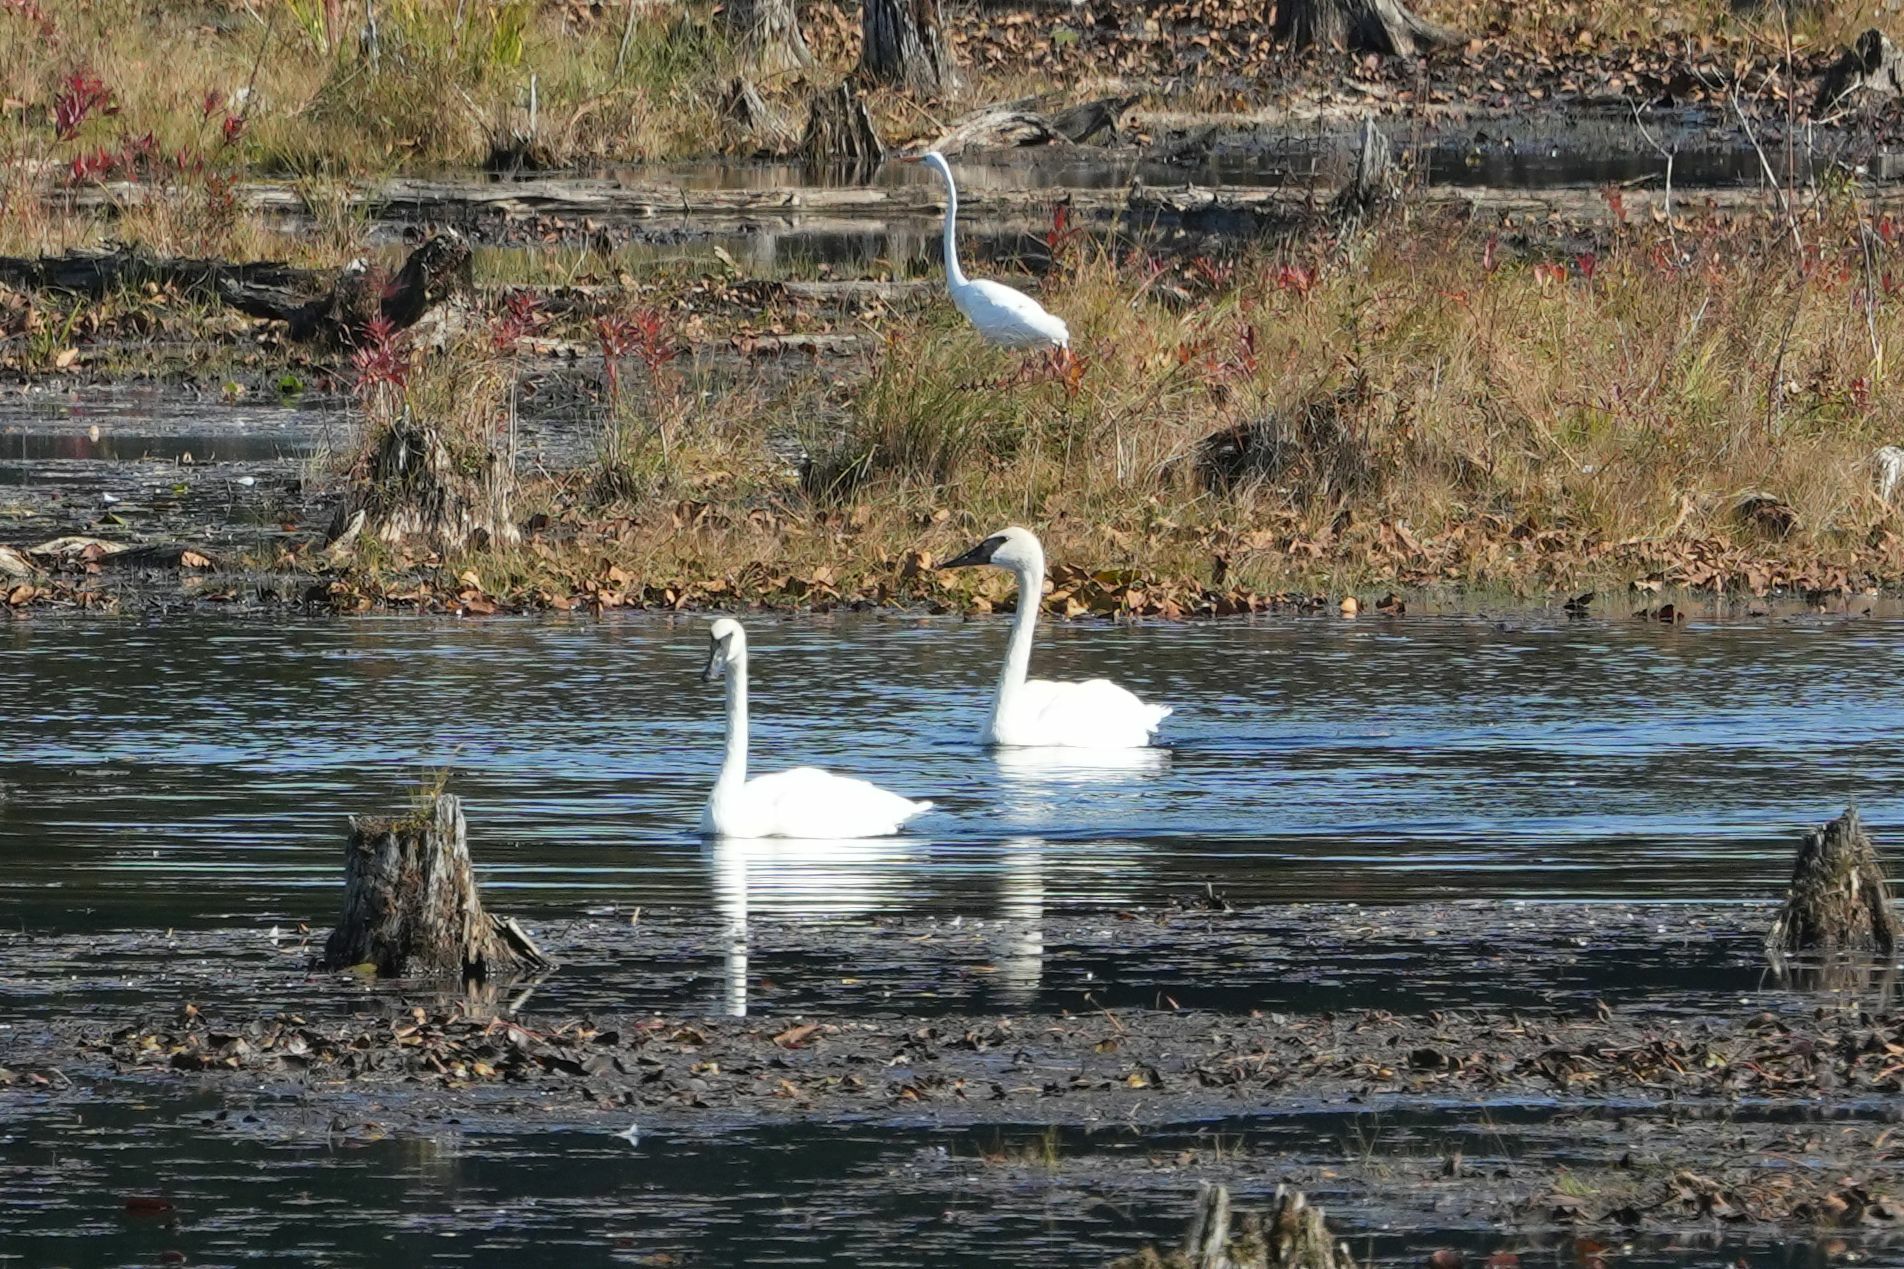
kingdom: Animalia
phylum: Chordata
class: Aves
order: Anseriformes
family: Anatidae
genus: Cygnus
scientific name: Cygnus buccinator
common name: Trumpeter swan
